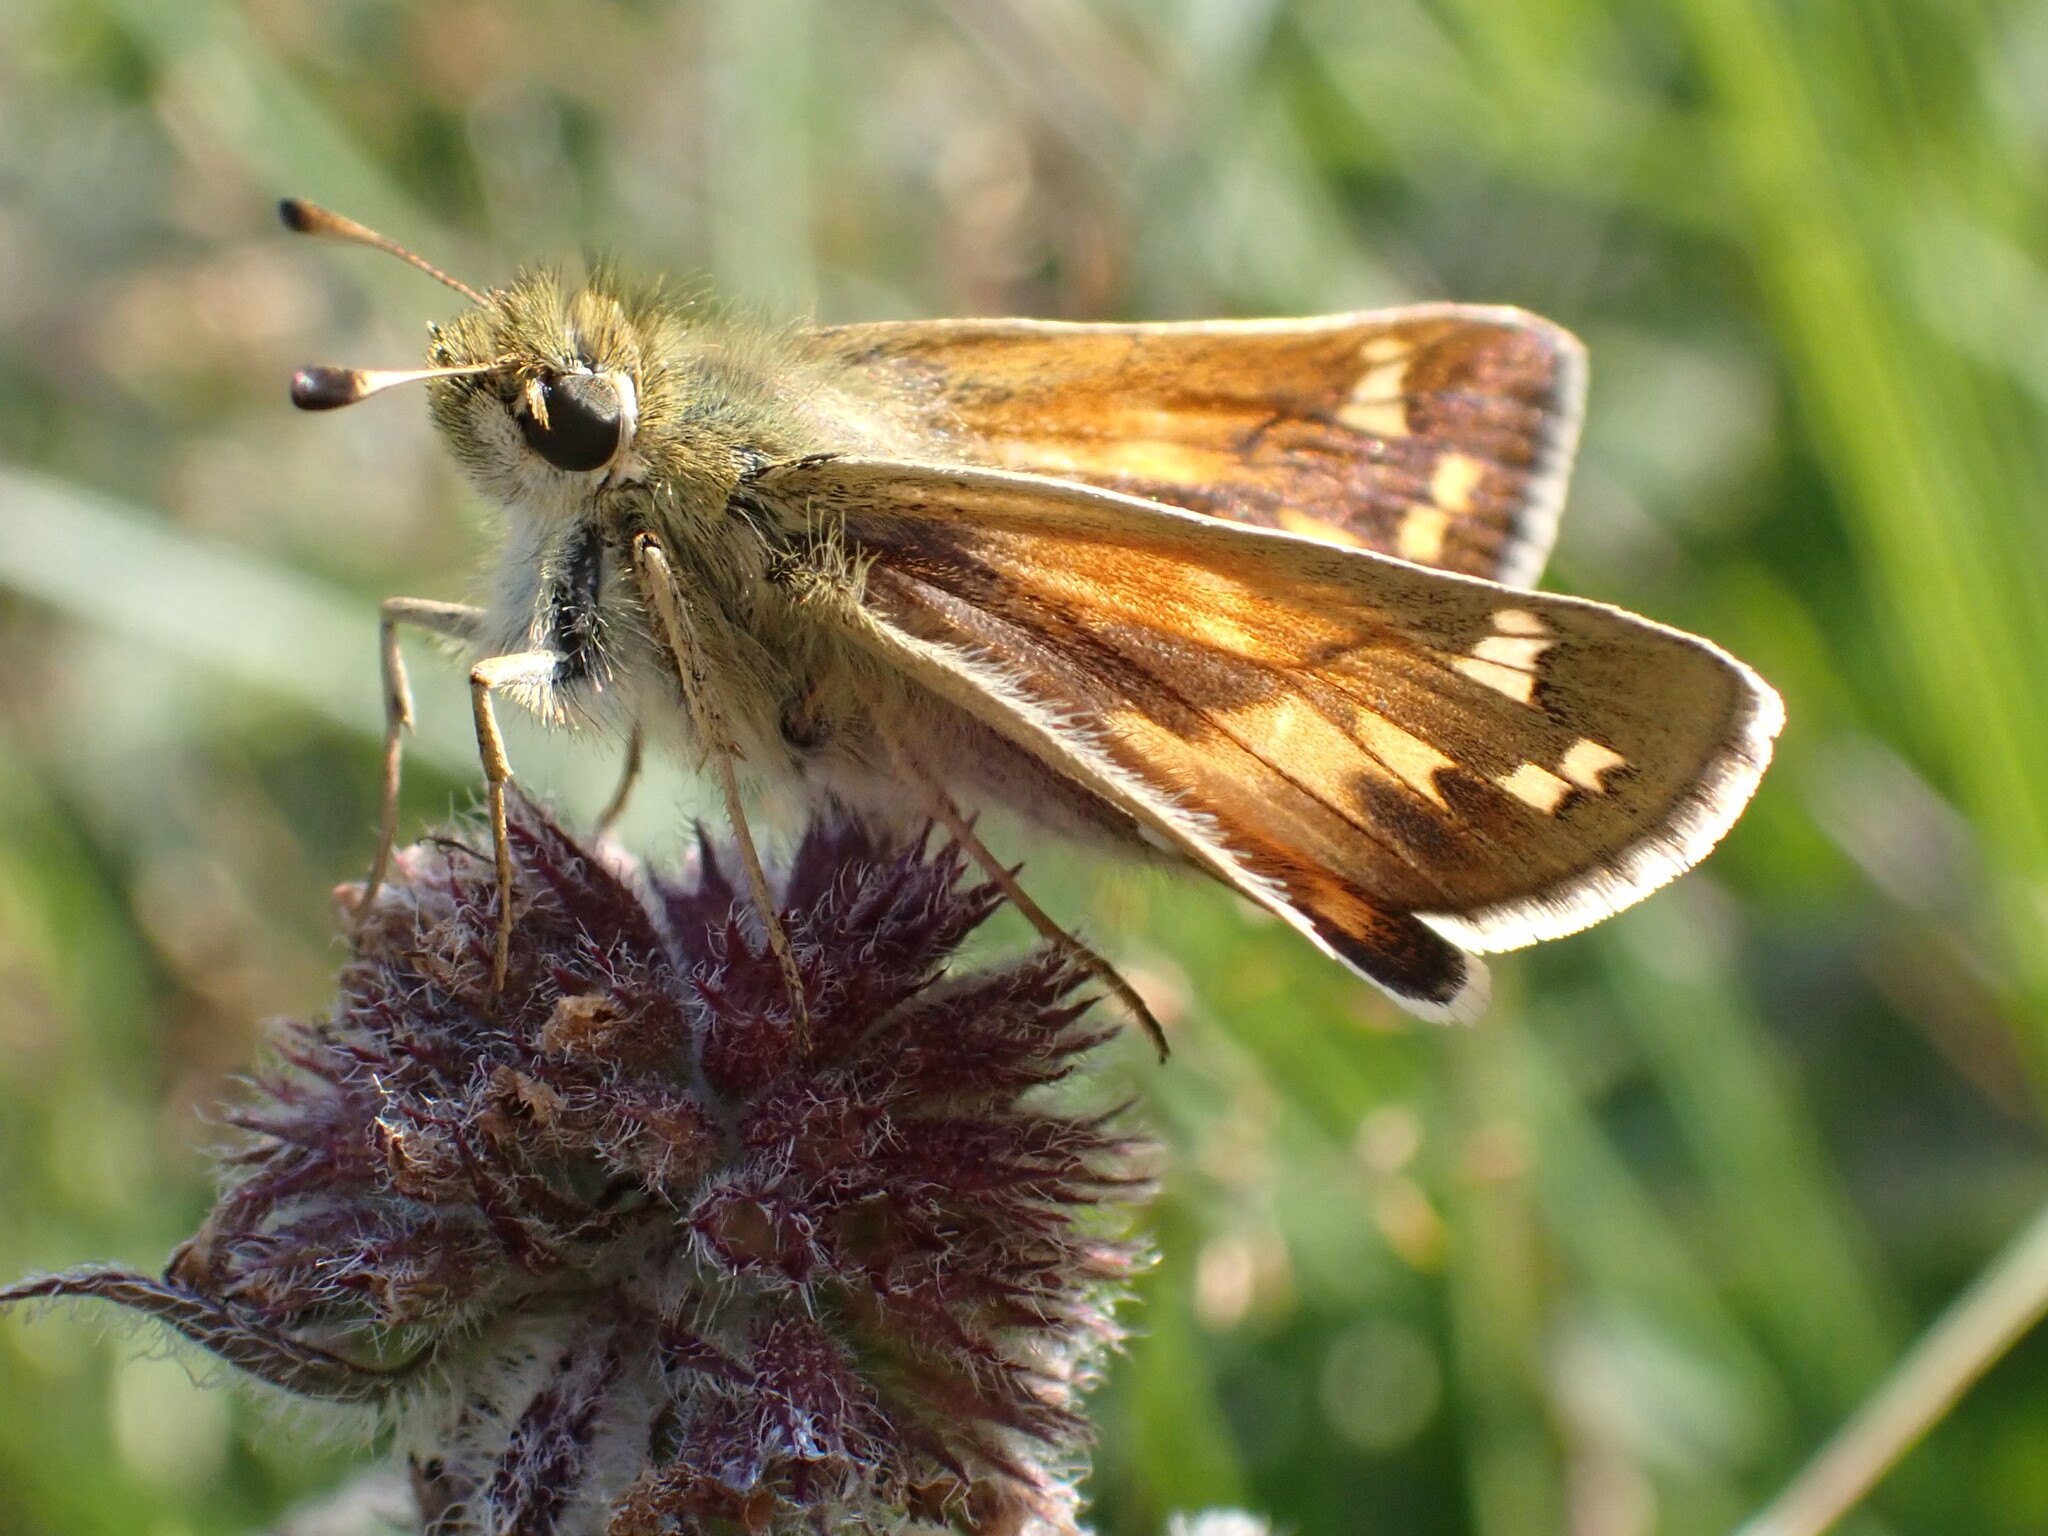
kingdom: Animalia
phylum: Arthropoda
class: Insecta
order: Lepidoptera
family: Hesperiidae
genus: Hesperia
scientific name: Hesperia comma
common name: Common branded skipper
